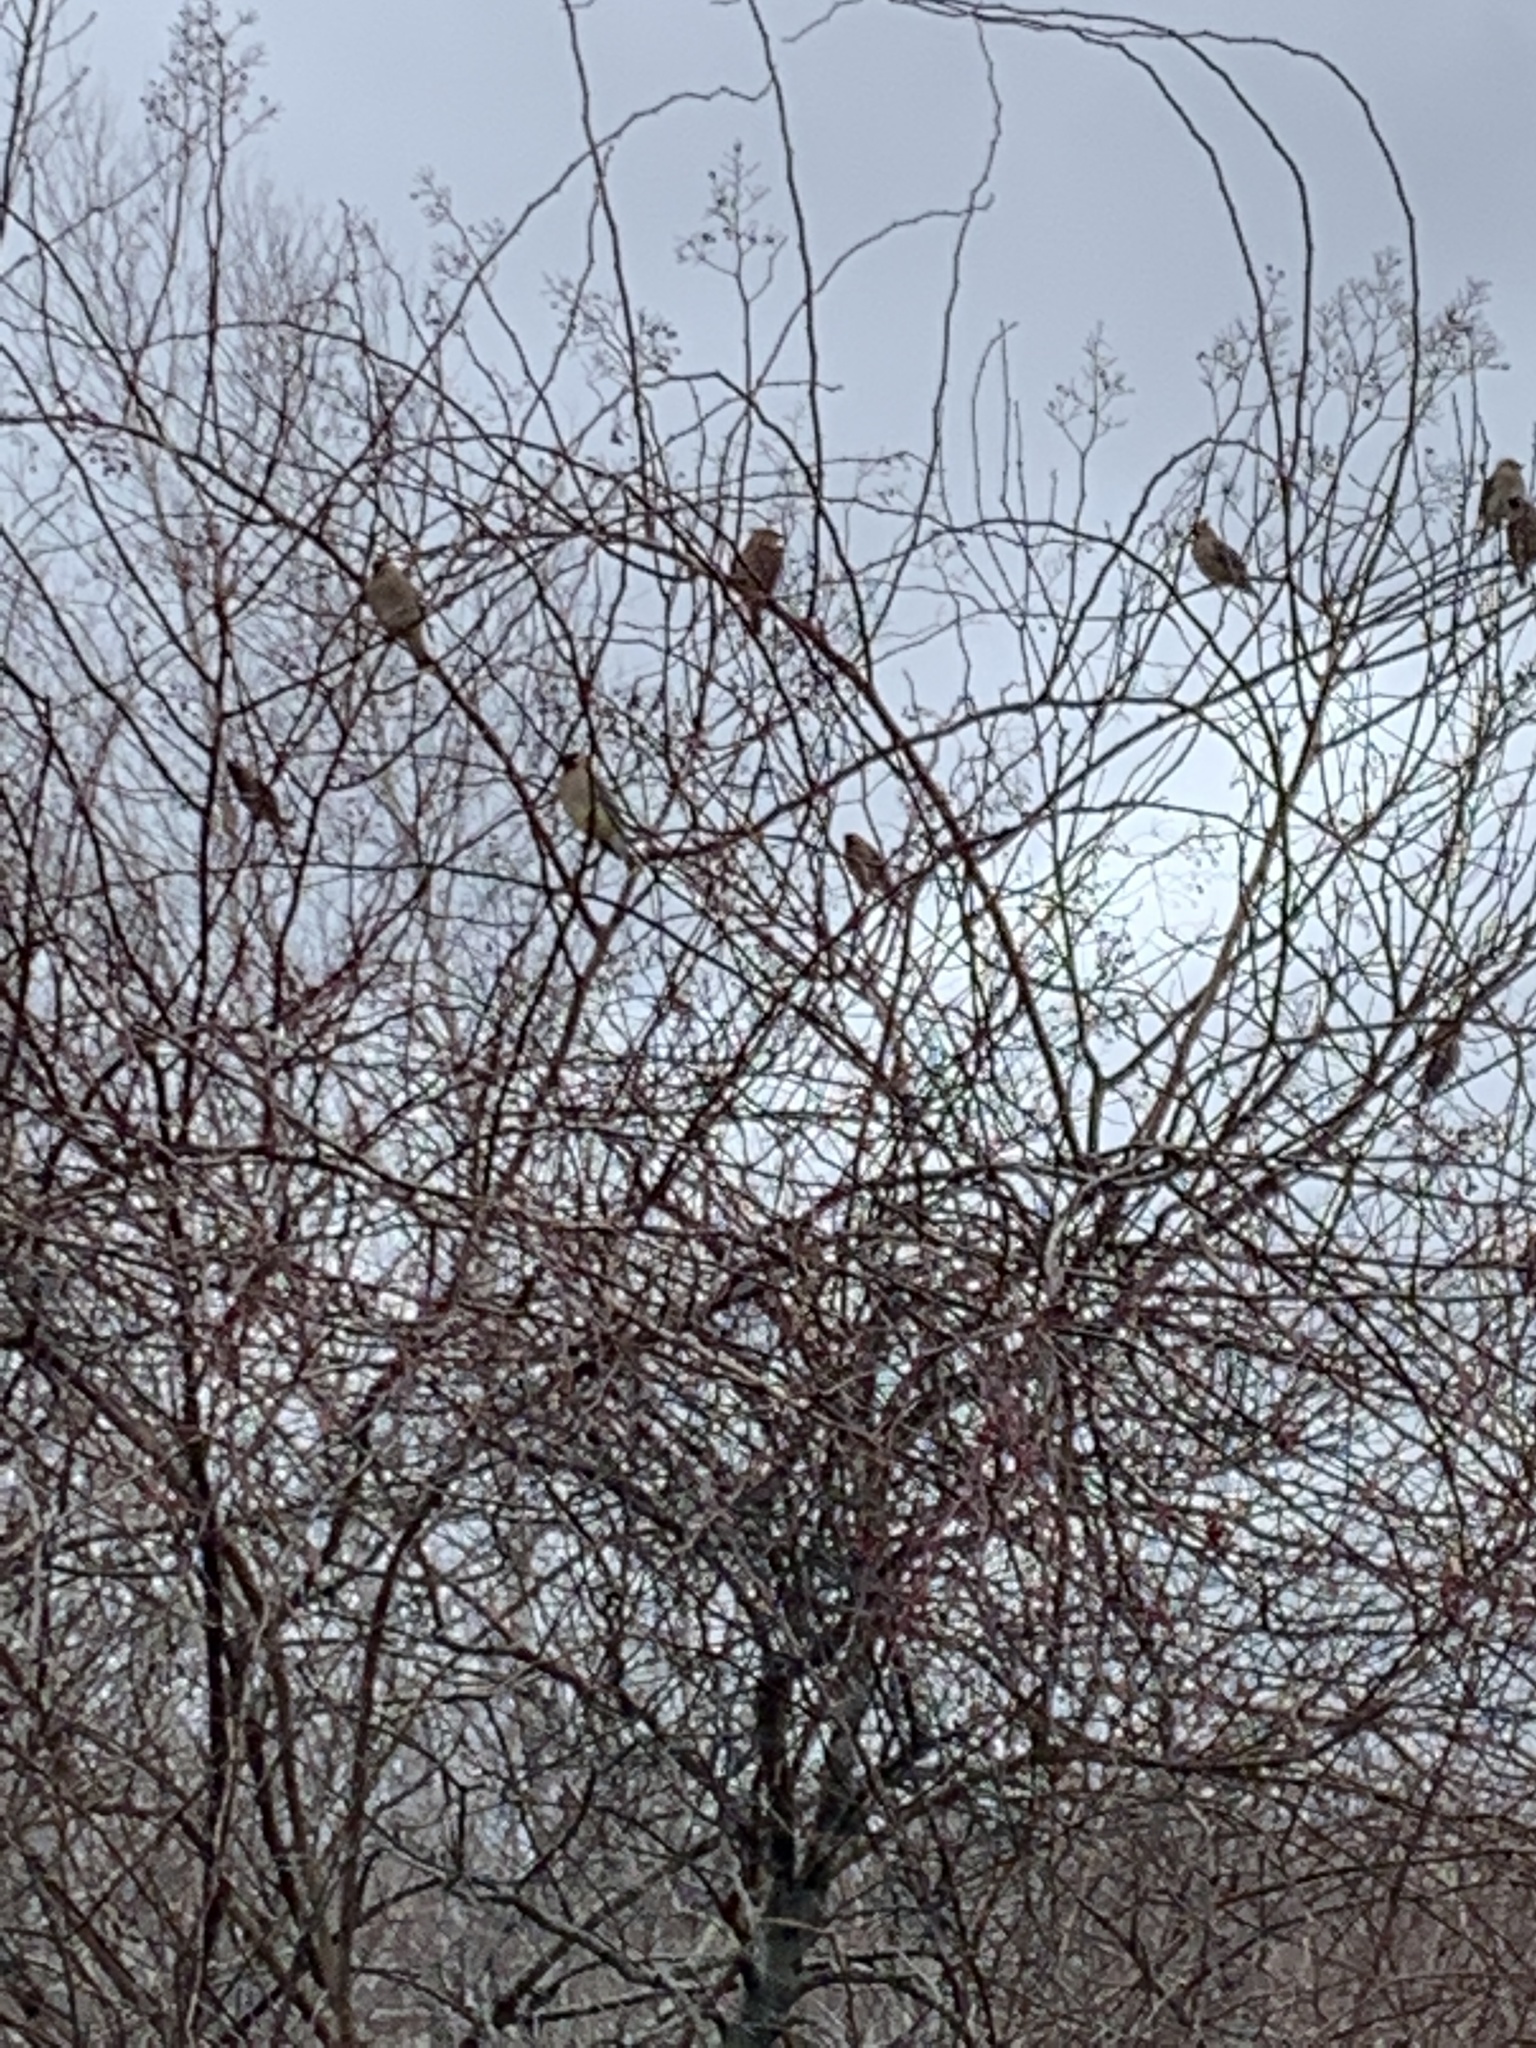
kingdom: Animalia
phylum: Chordata
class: Aves
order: Passeriformes
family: Bombycillidae
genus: Bombycilla
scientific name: Bombycilla cedrorum
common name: Cedar waxwing
